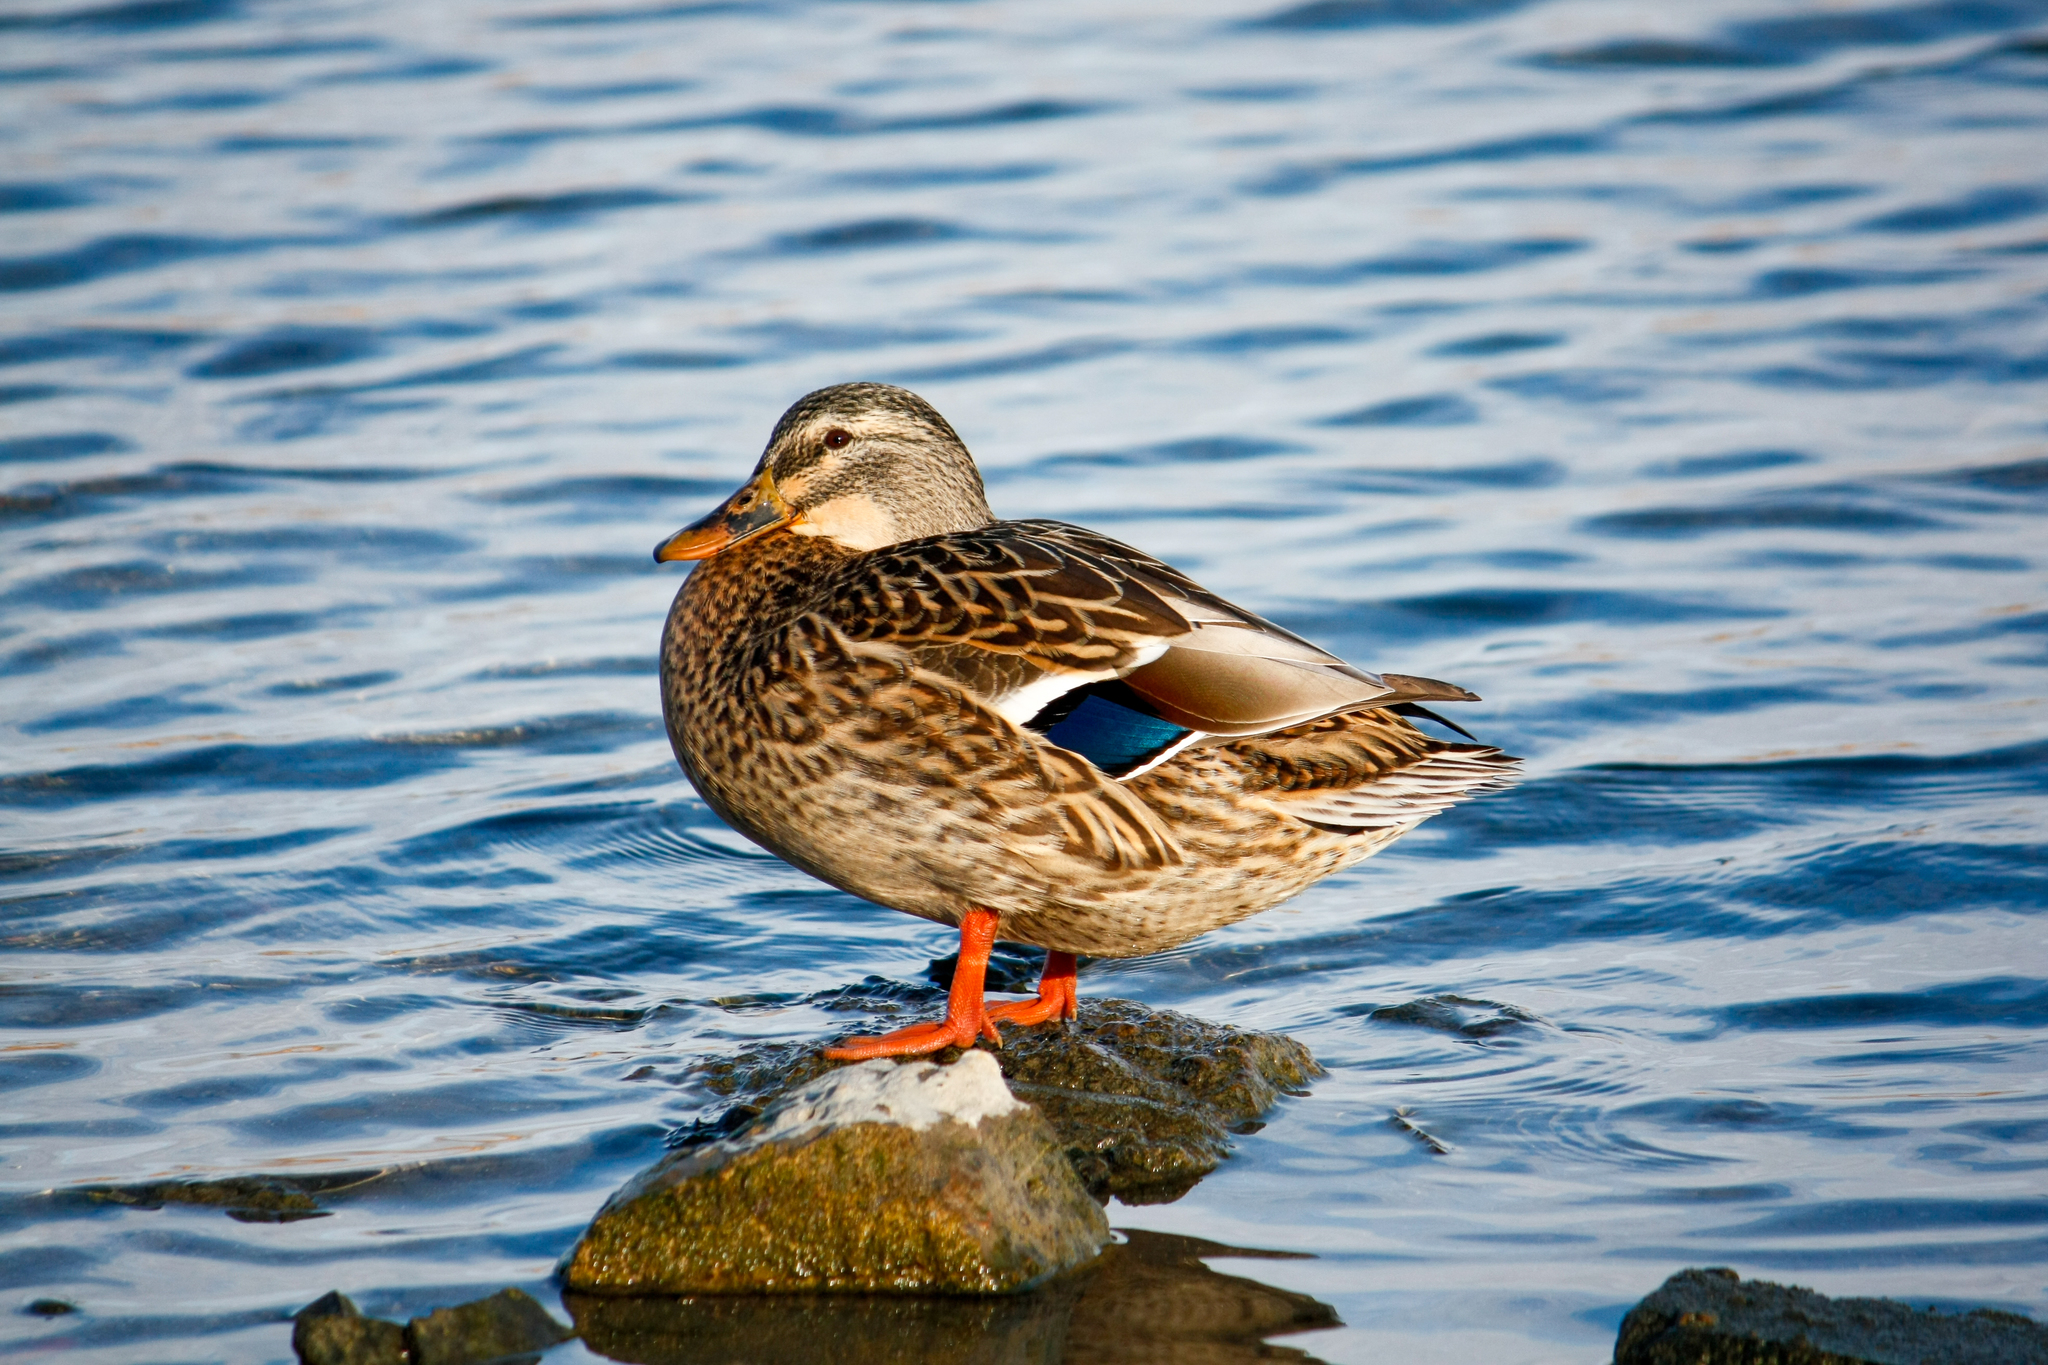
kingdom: Animalia
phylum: Chordata
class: Aves
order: Anseriformes
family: Anatidae
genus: Anas
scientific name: Anas platyrhynchos
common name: Mallard
